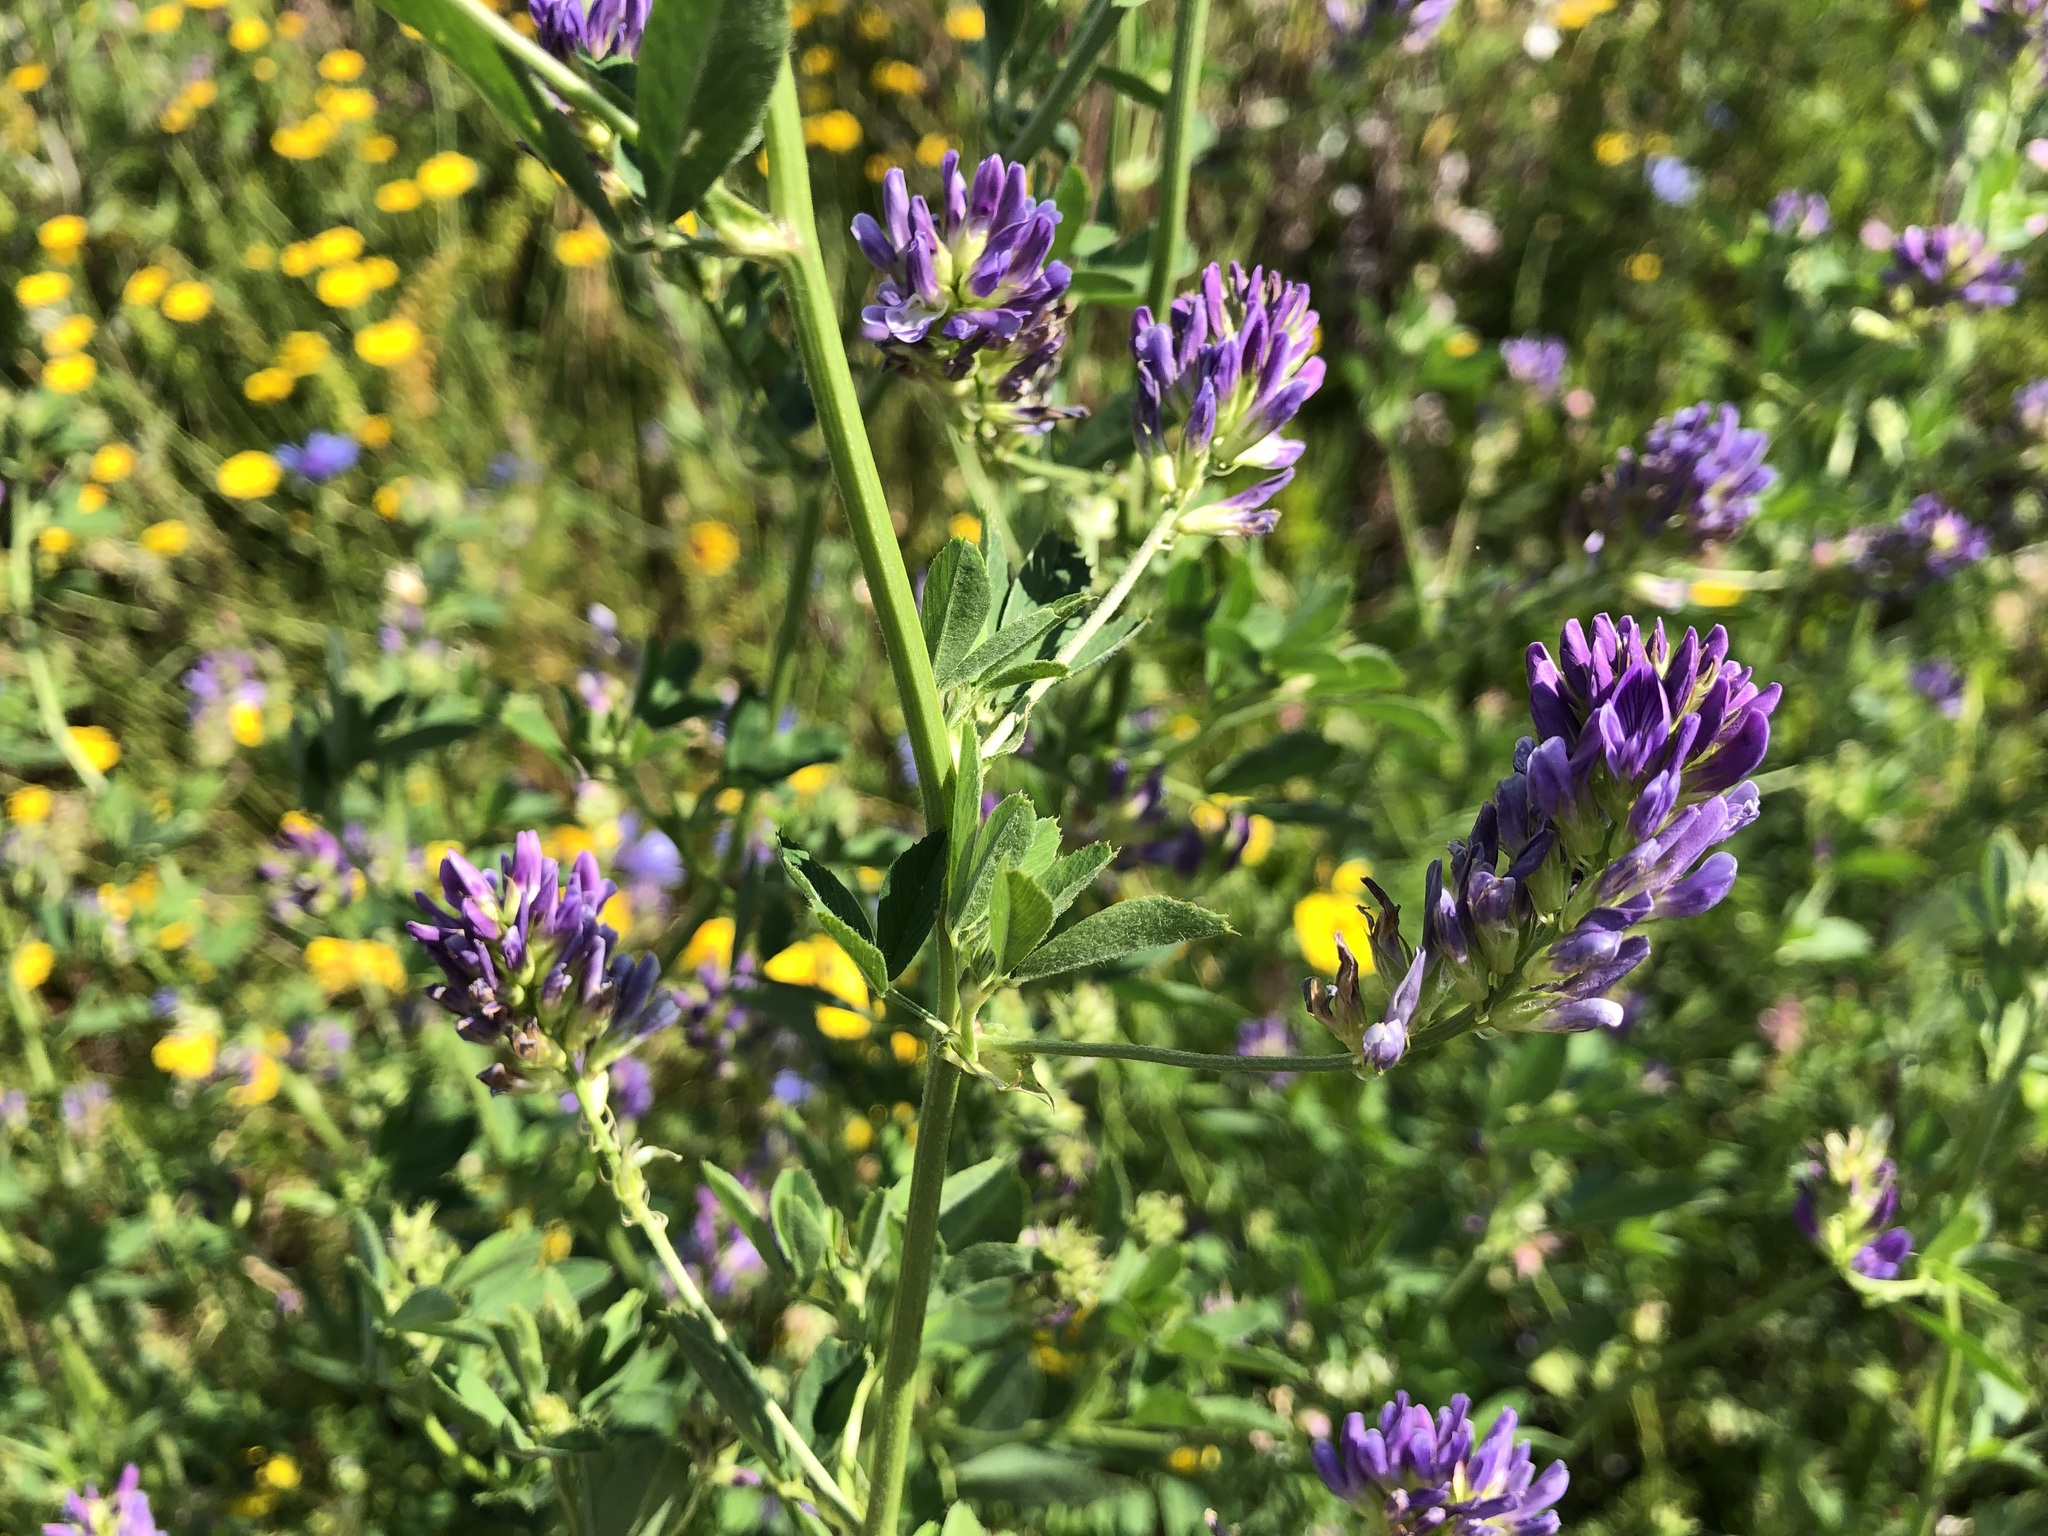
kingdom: Plantae
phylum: Tracheophyta
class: Magnoliopsida
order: Fabales
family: Fabaceae
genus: Medicago
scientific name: Medicago sativa
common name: Alfalfa
